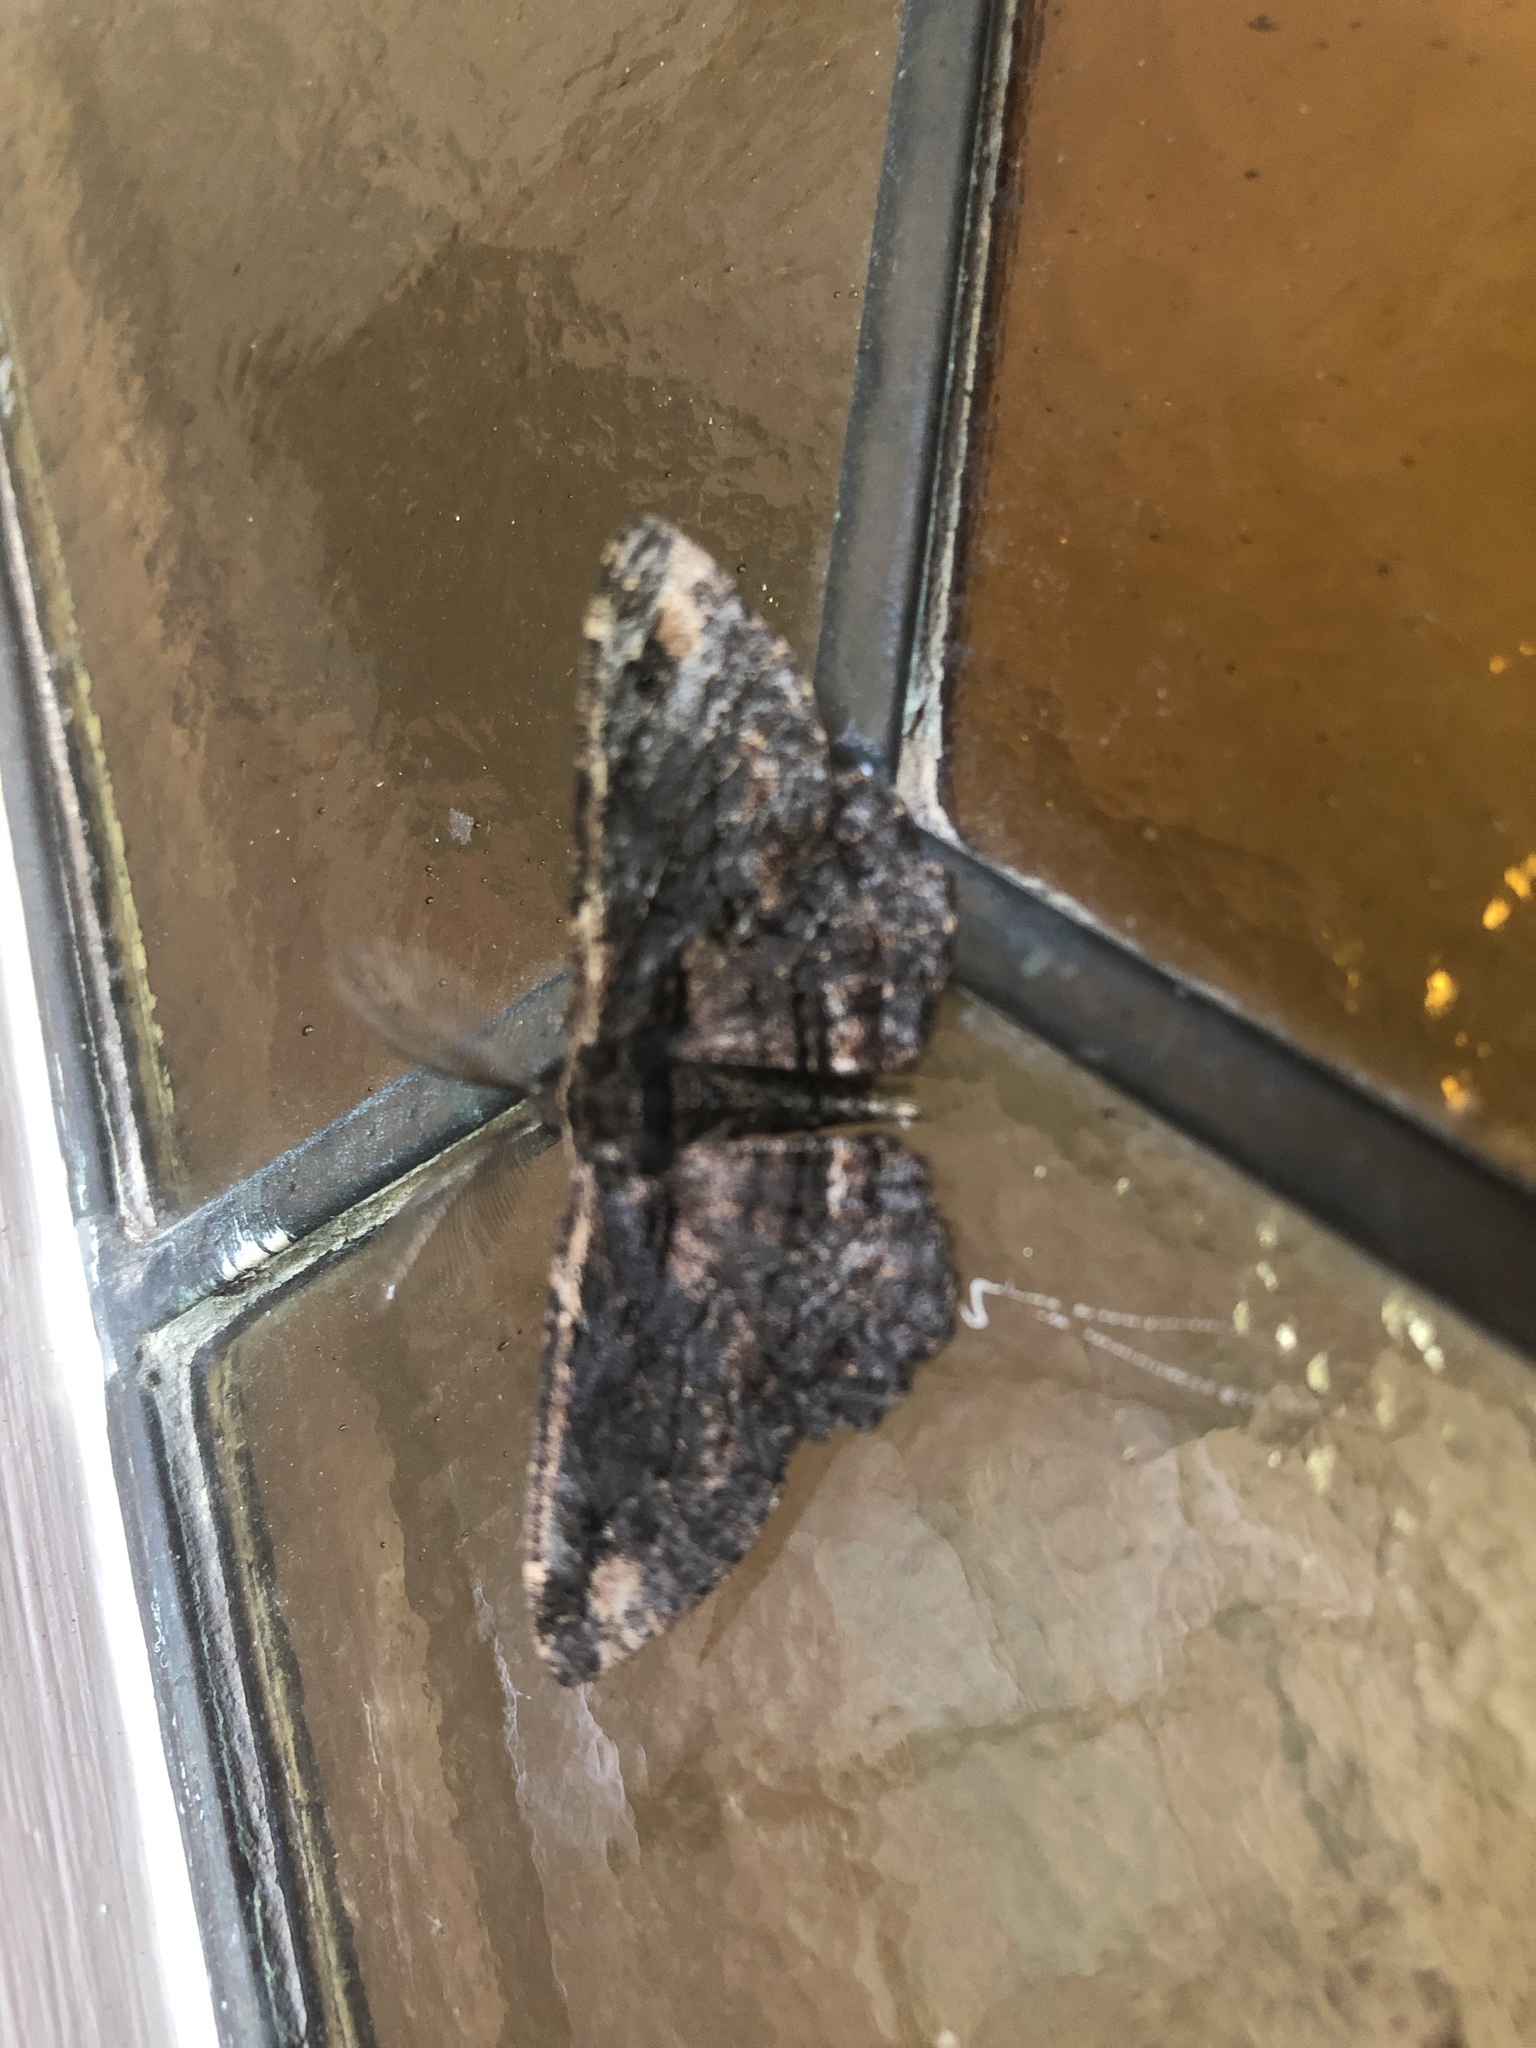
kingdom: Animalia
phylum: Arthropoda
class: Insecta
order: Lepidoptera
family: Geometridae
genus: Pholodes
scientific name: Pholodes sinistraria
